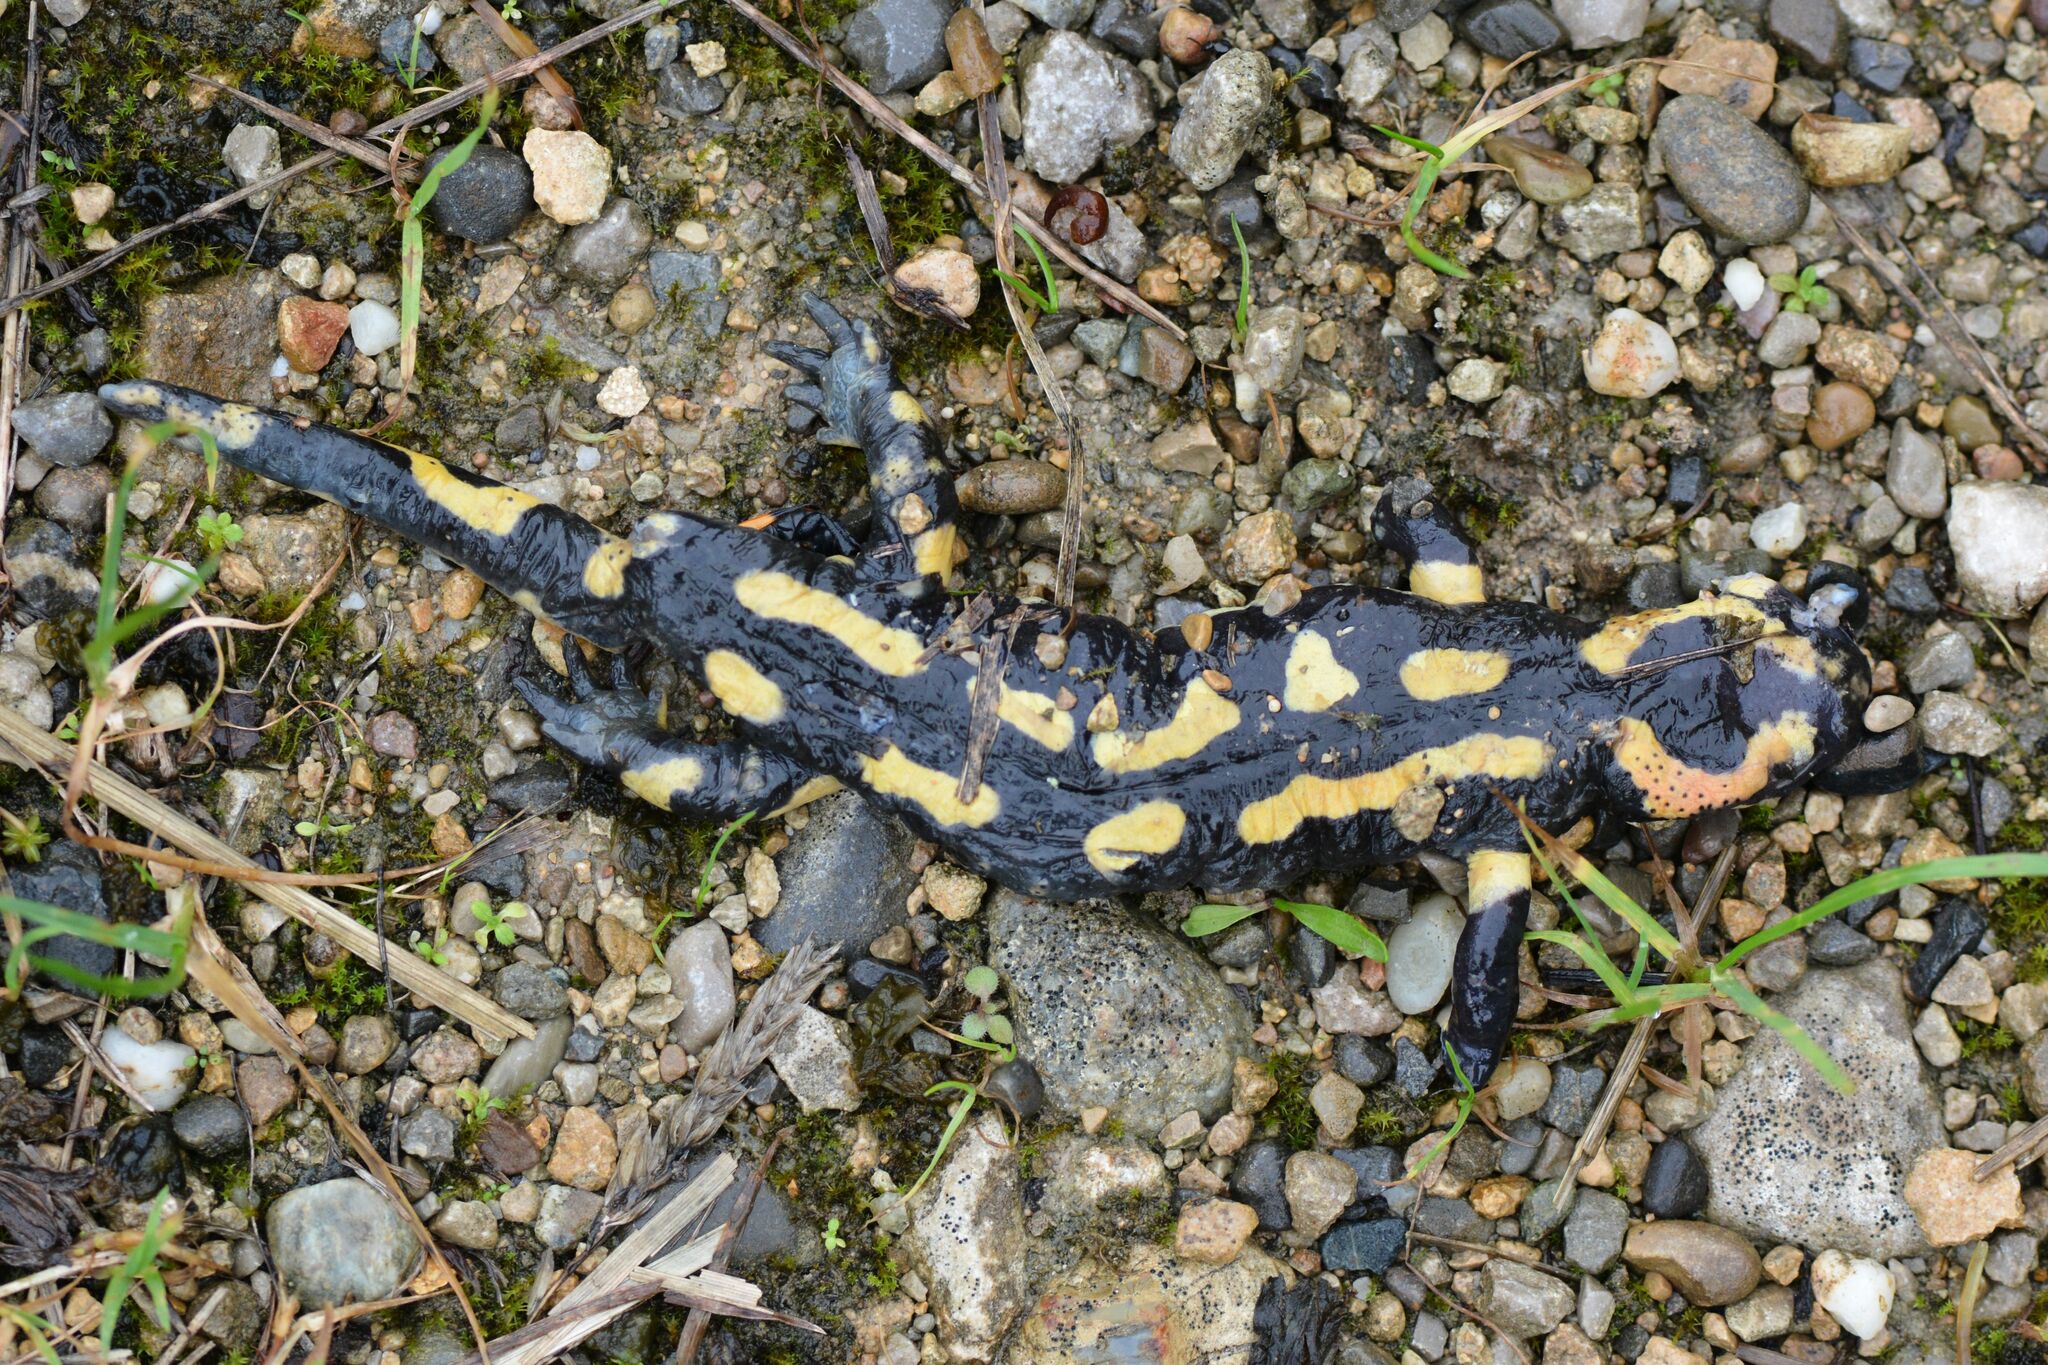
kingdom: Animalia
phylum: Chordata
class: Amphibia
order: Caudata
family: Salamandridae
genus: Salamandra
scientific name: Salamandra salamandra
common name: Fire salamander
